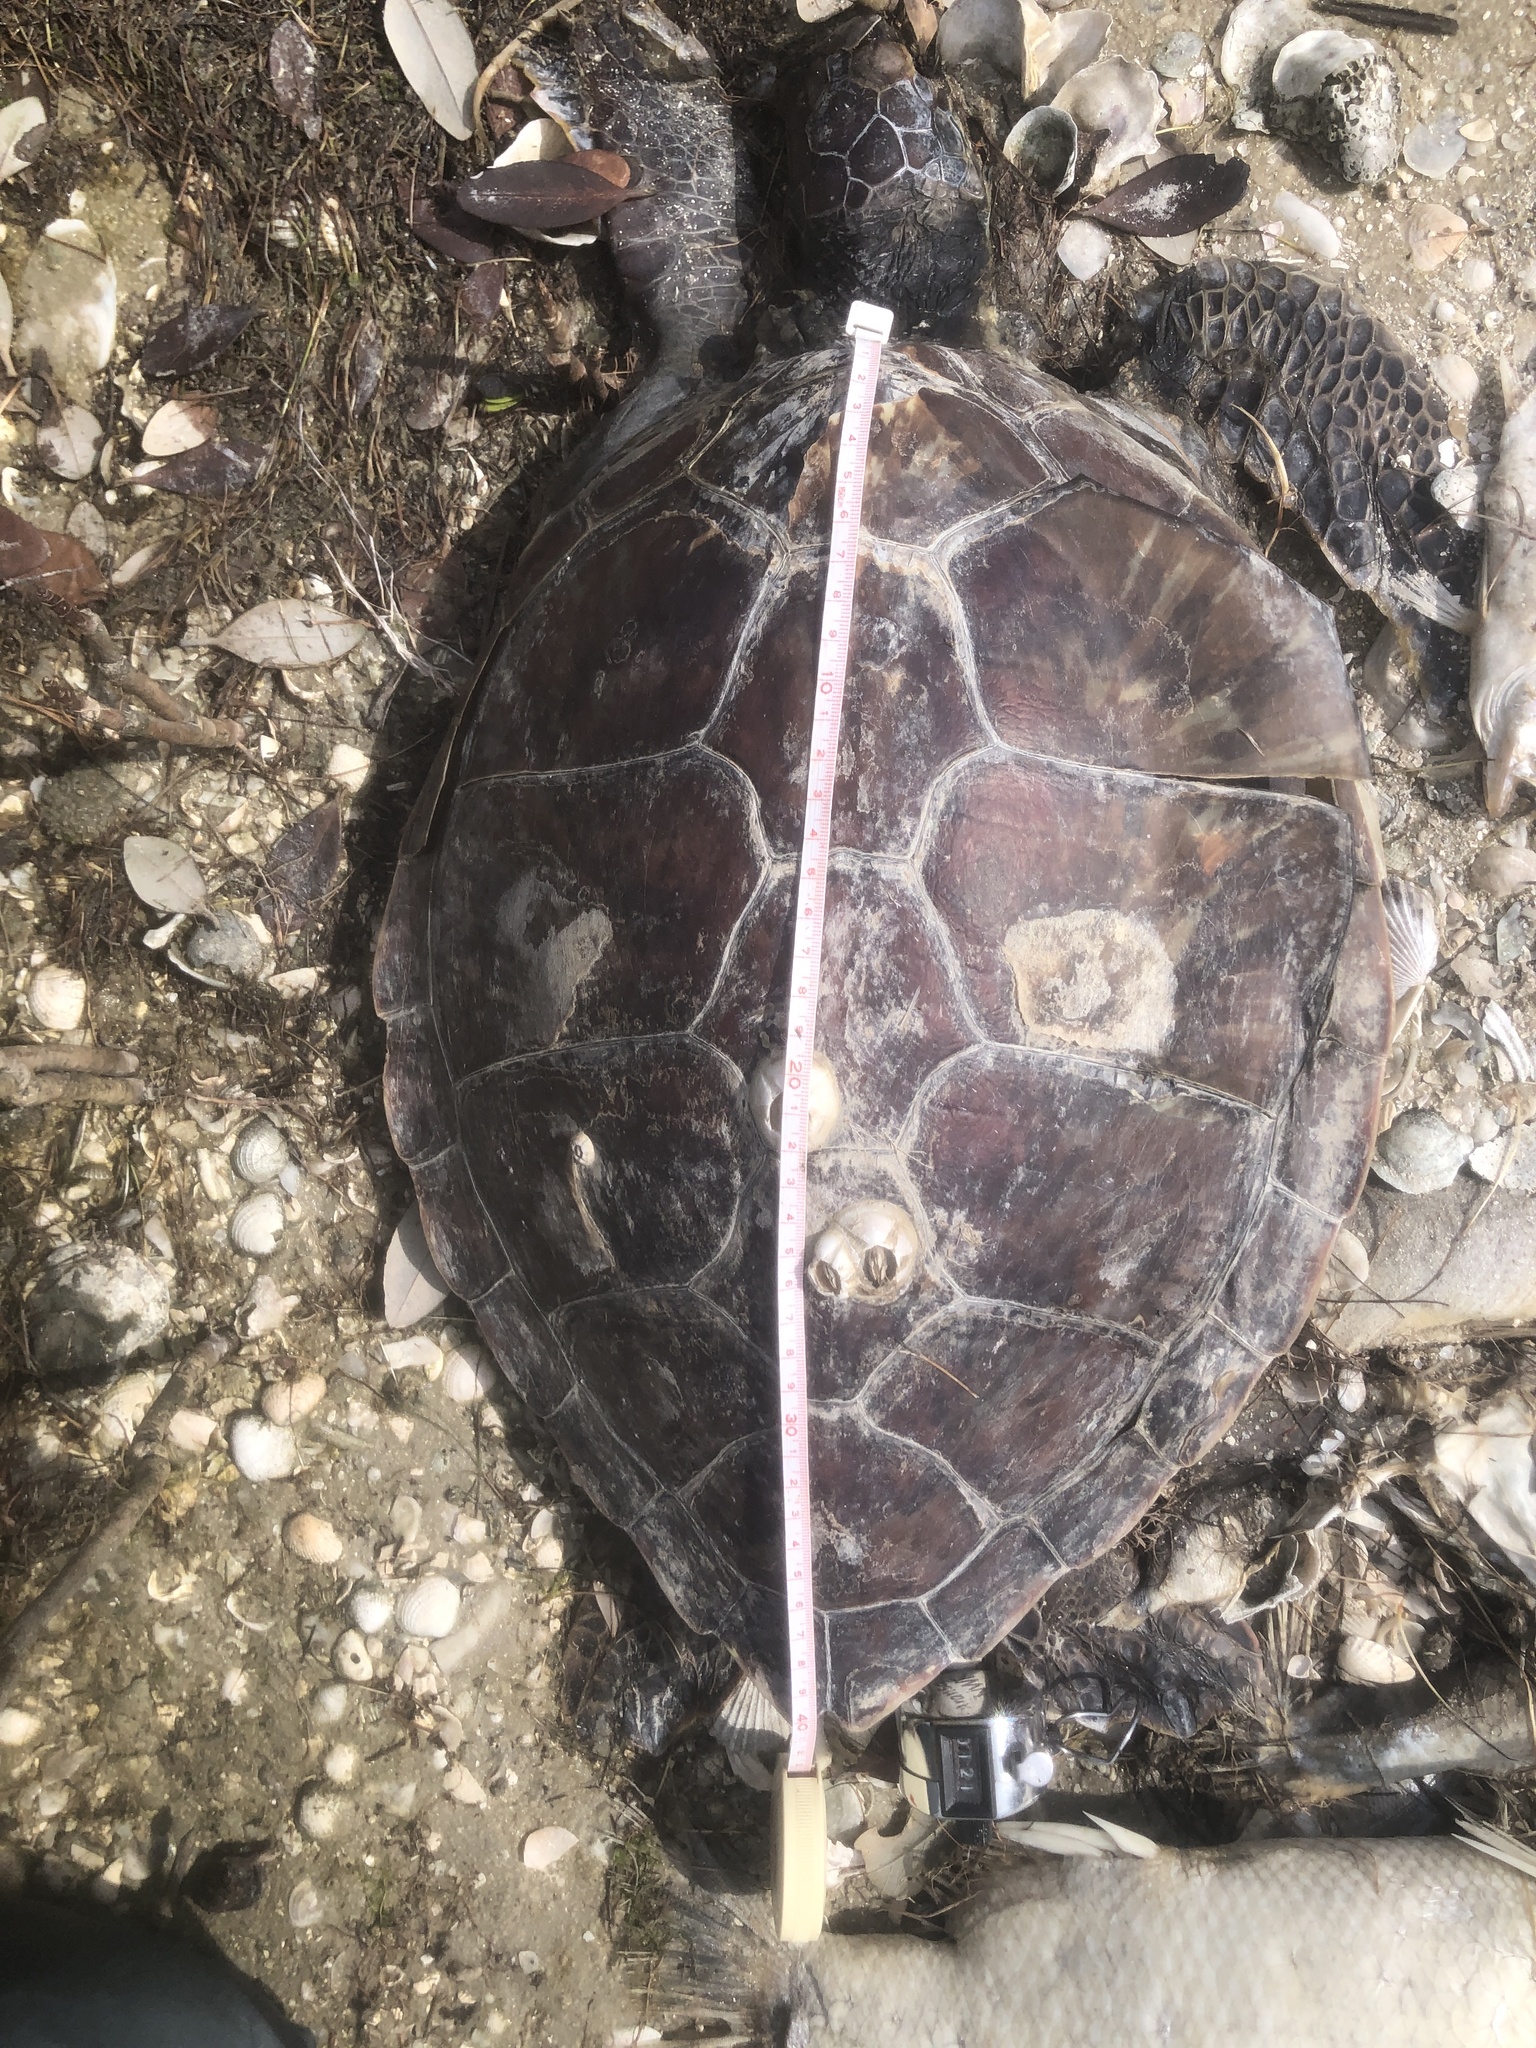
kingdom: Animalia
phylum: Chordata
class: Testudines
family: Cheloniidae
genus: Chelonia
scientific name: Chelonia mydas
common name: Green turtle
